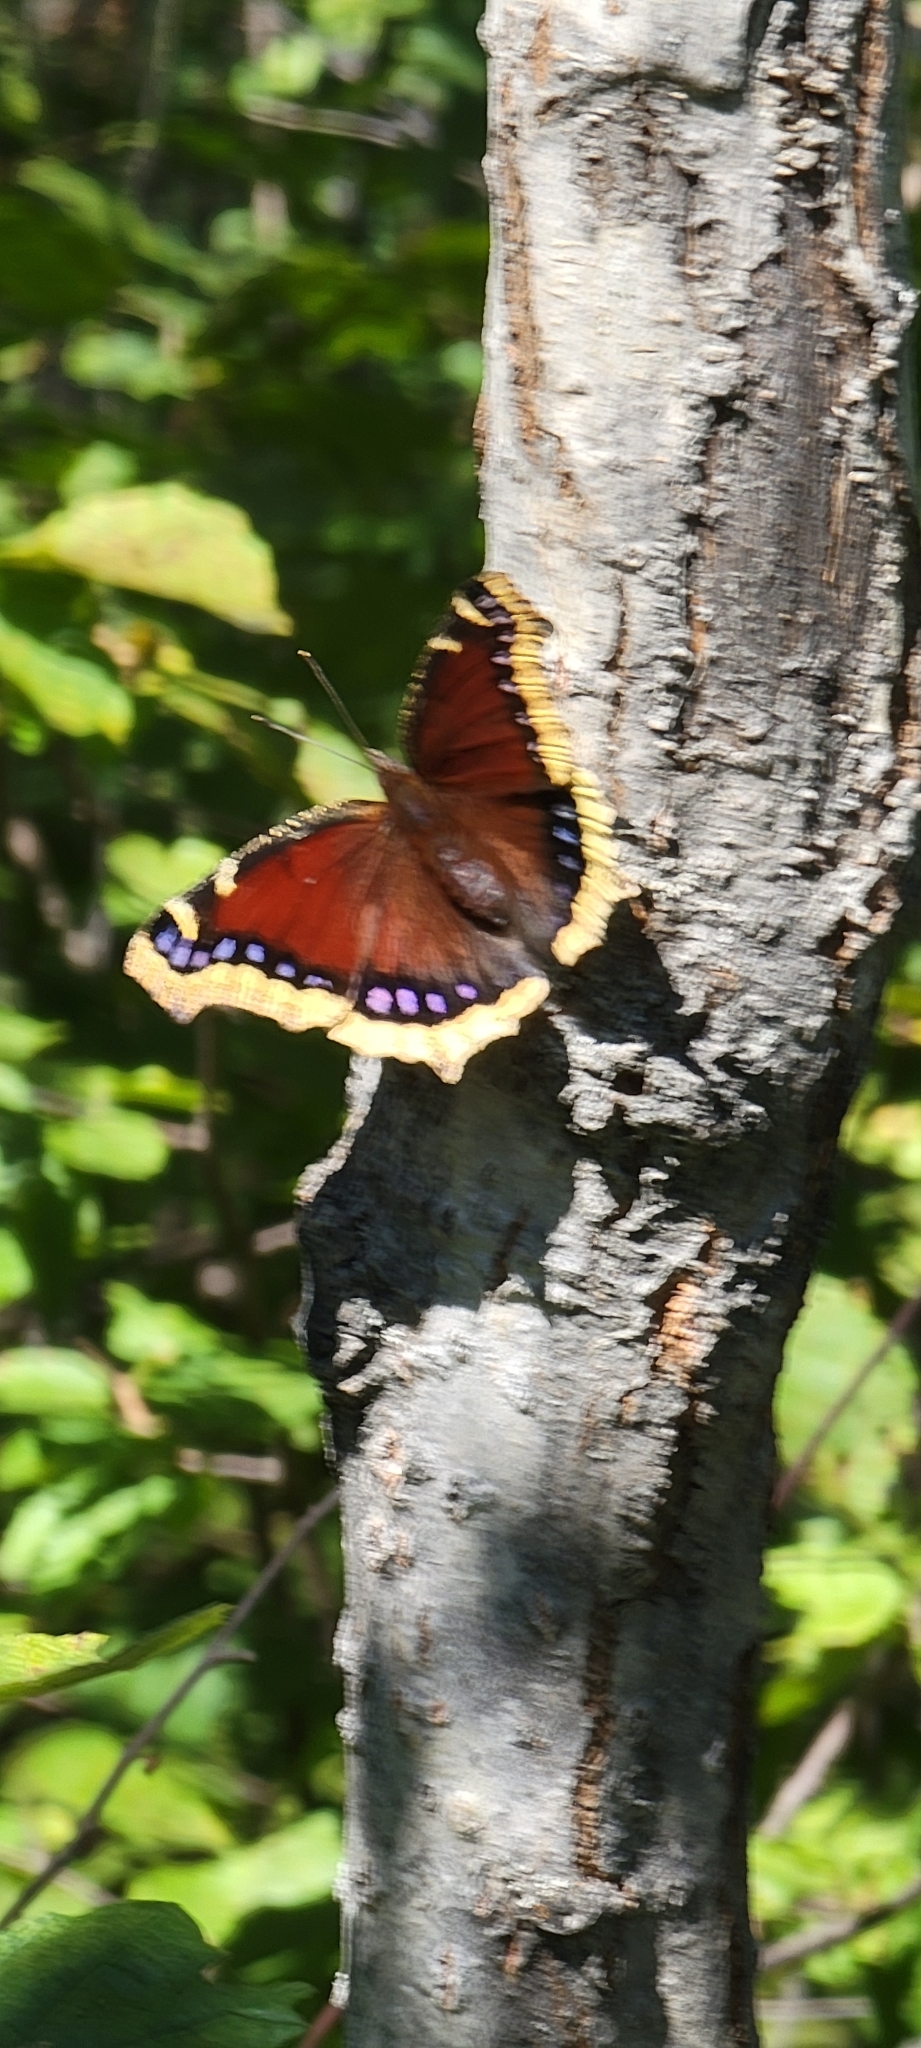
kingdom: Animalia
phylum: Arthropoda
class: Insecta
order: Lepidoptera
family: Nymphalidae
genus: Nymphalis
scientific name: Nymphalis antiopa
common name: Camberwell beauty
